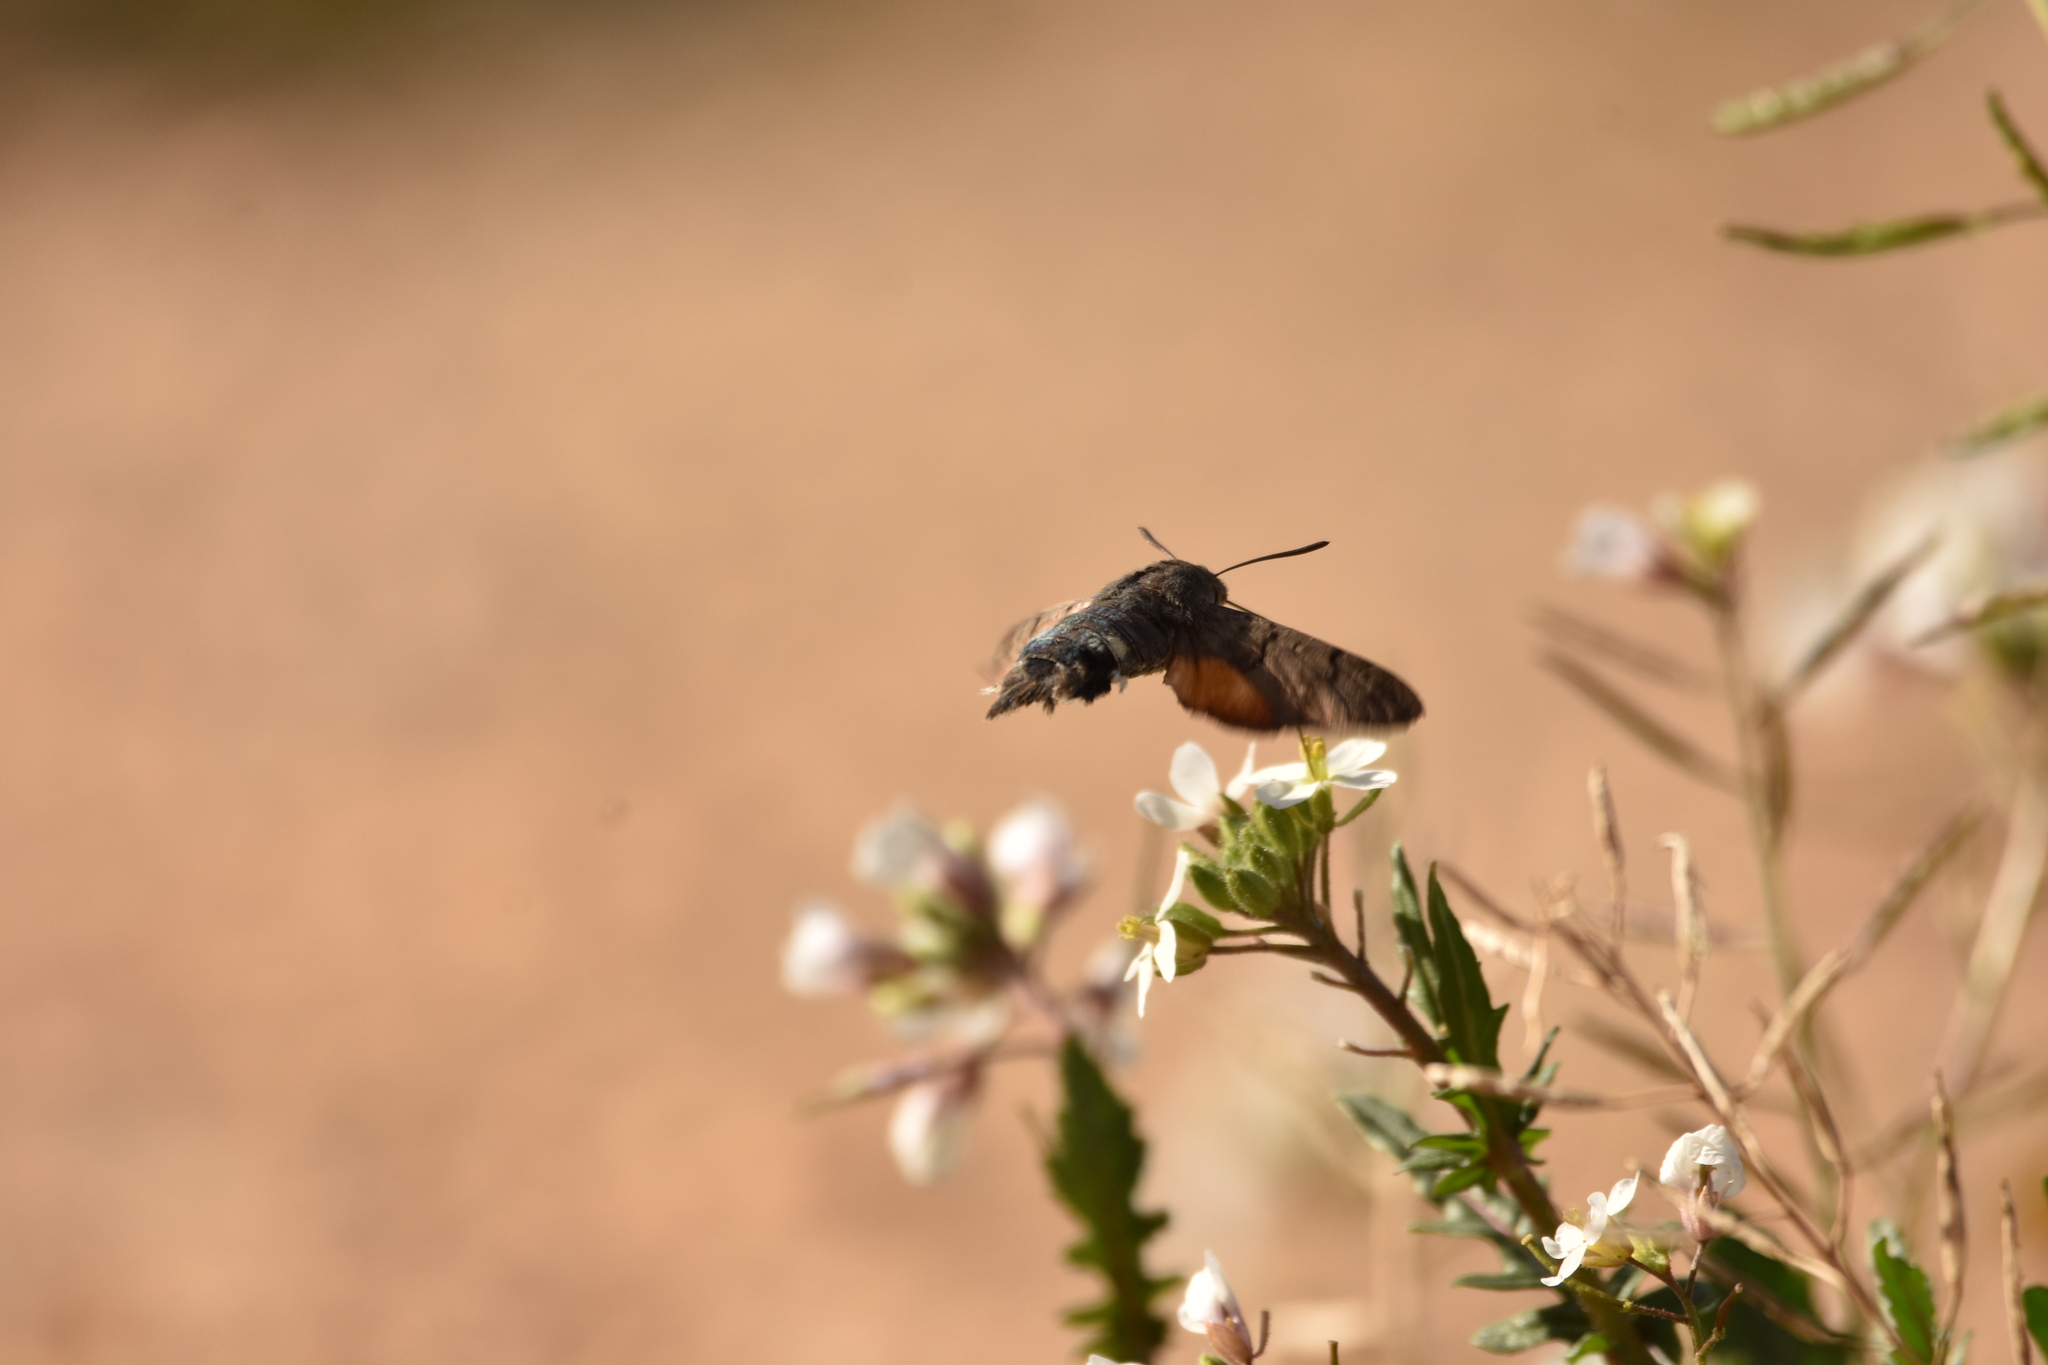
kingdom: Animalia
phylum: Arthropoda
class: Insecta
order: Lepidoptera
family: Sphingidae
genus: Macroglossum
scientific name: Macroglossum stellatarum
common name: Humming-bird hawk-moth
